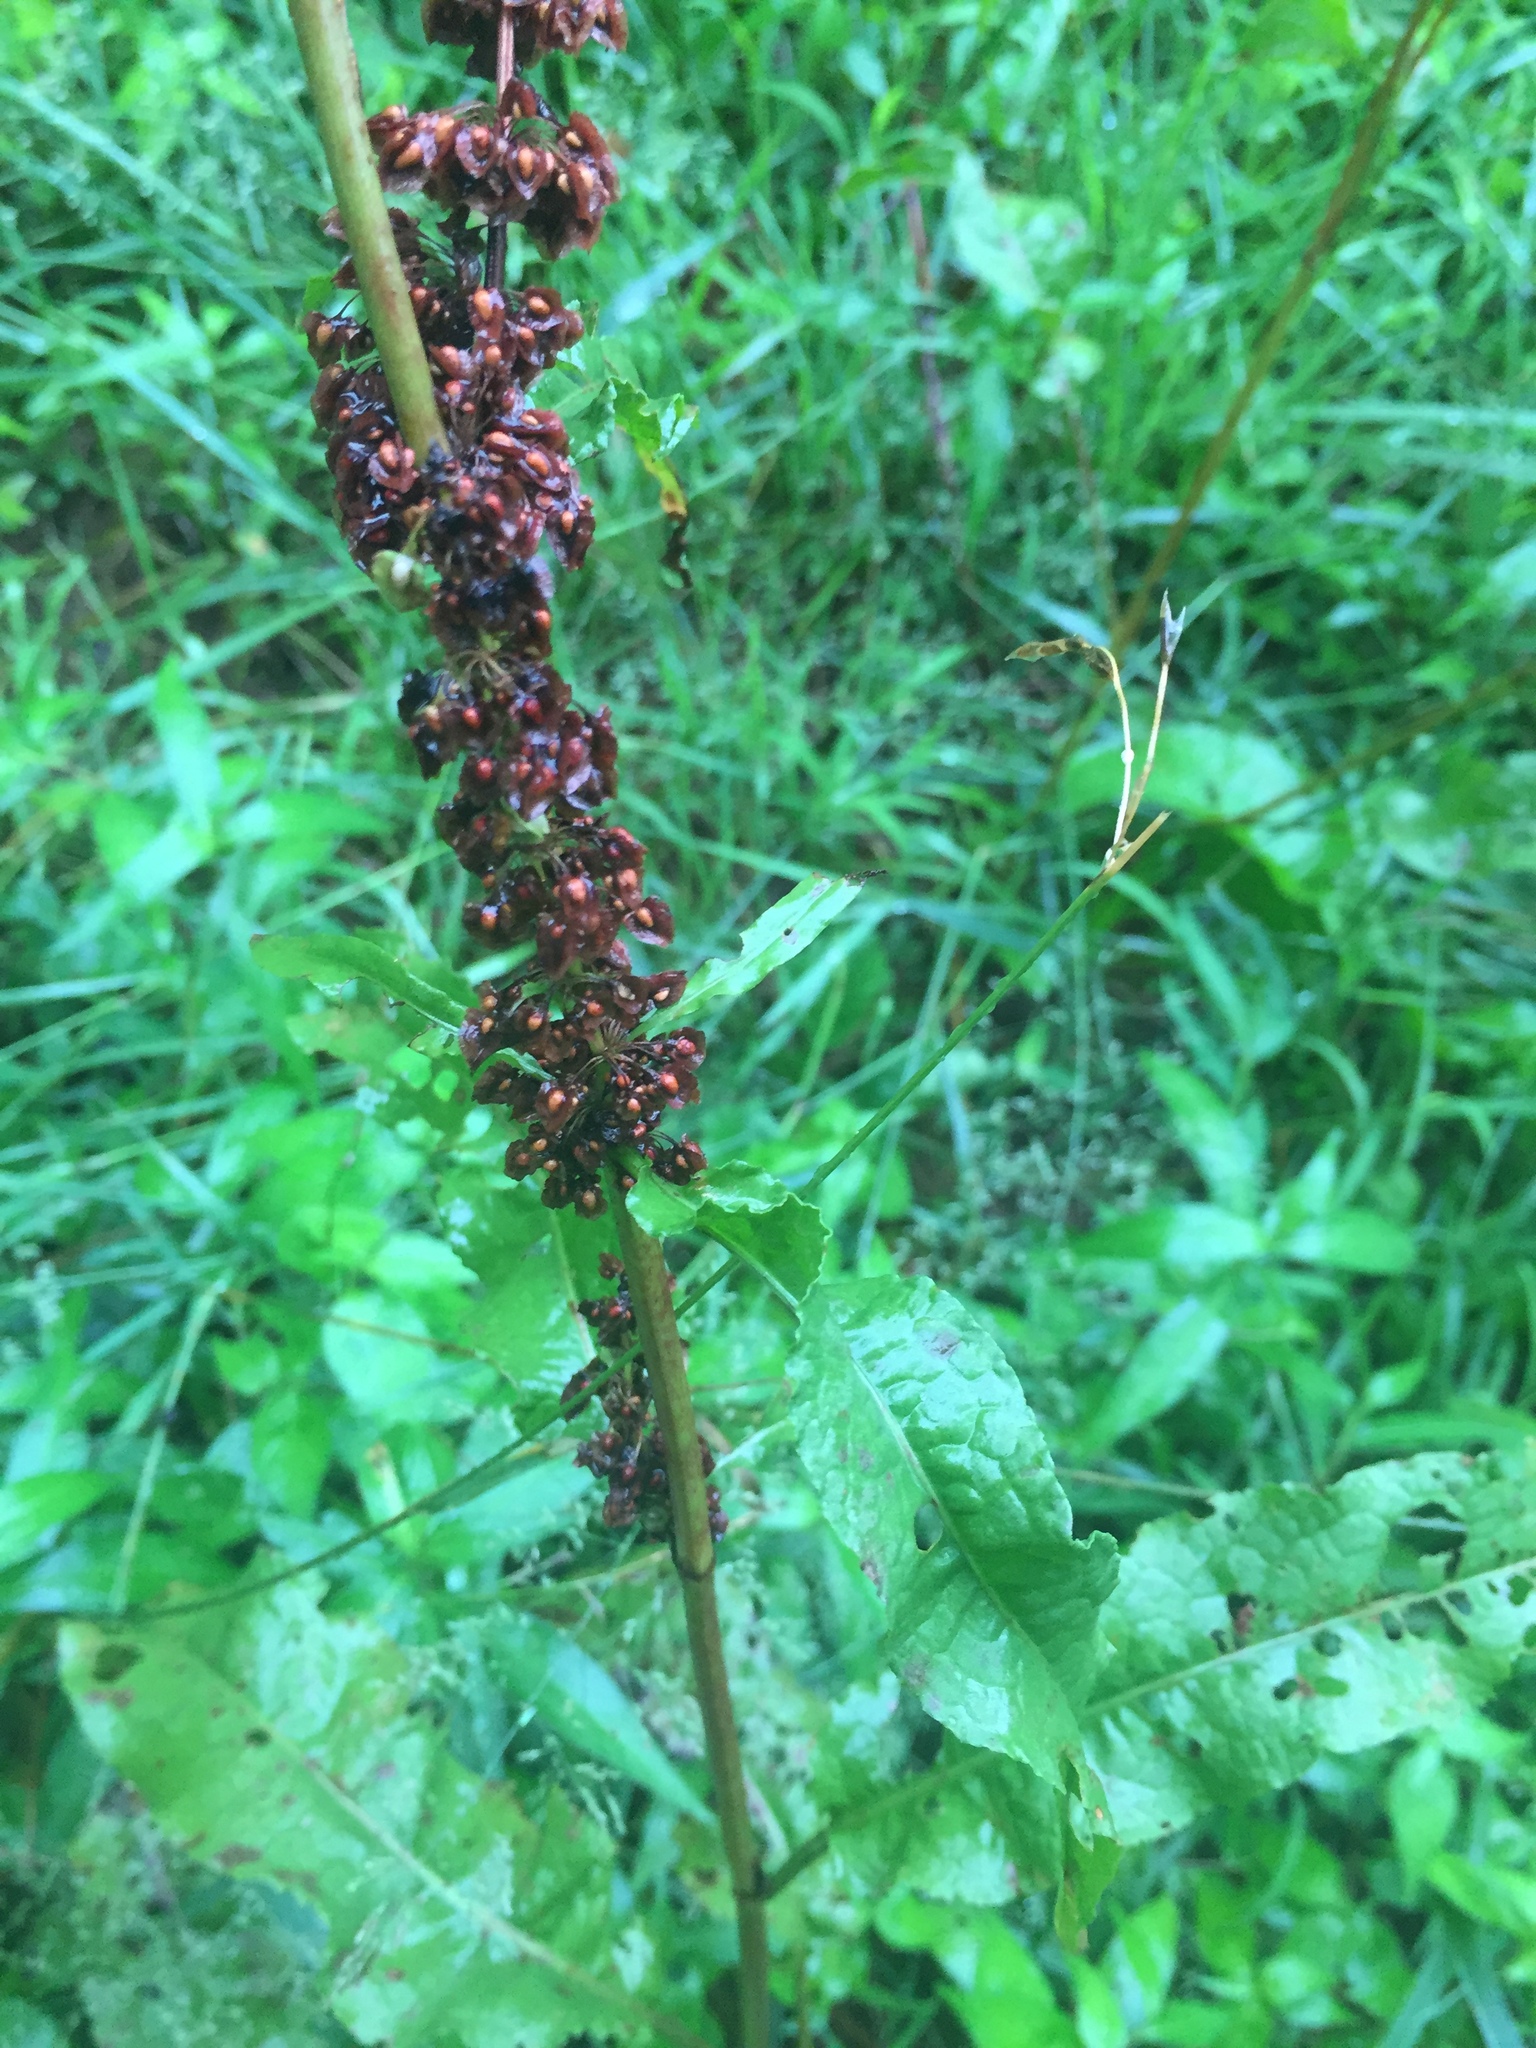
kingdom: Plantae
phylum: Tracheophyta
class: Magnoliopsida
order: Caryophyllales
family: Polygonaceae
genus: Rumex
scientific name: Rumex crispus
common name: Curled dock
